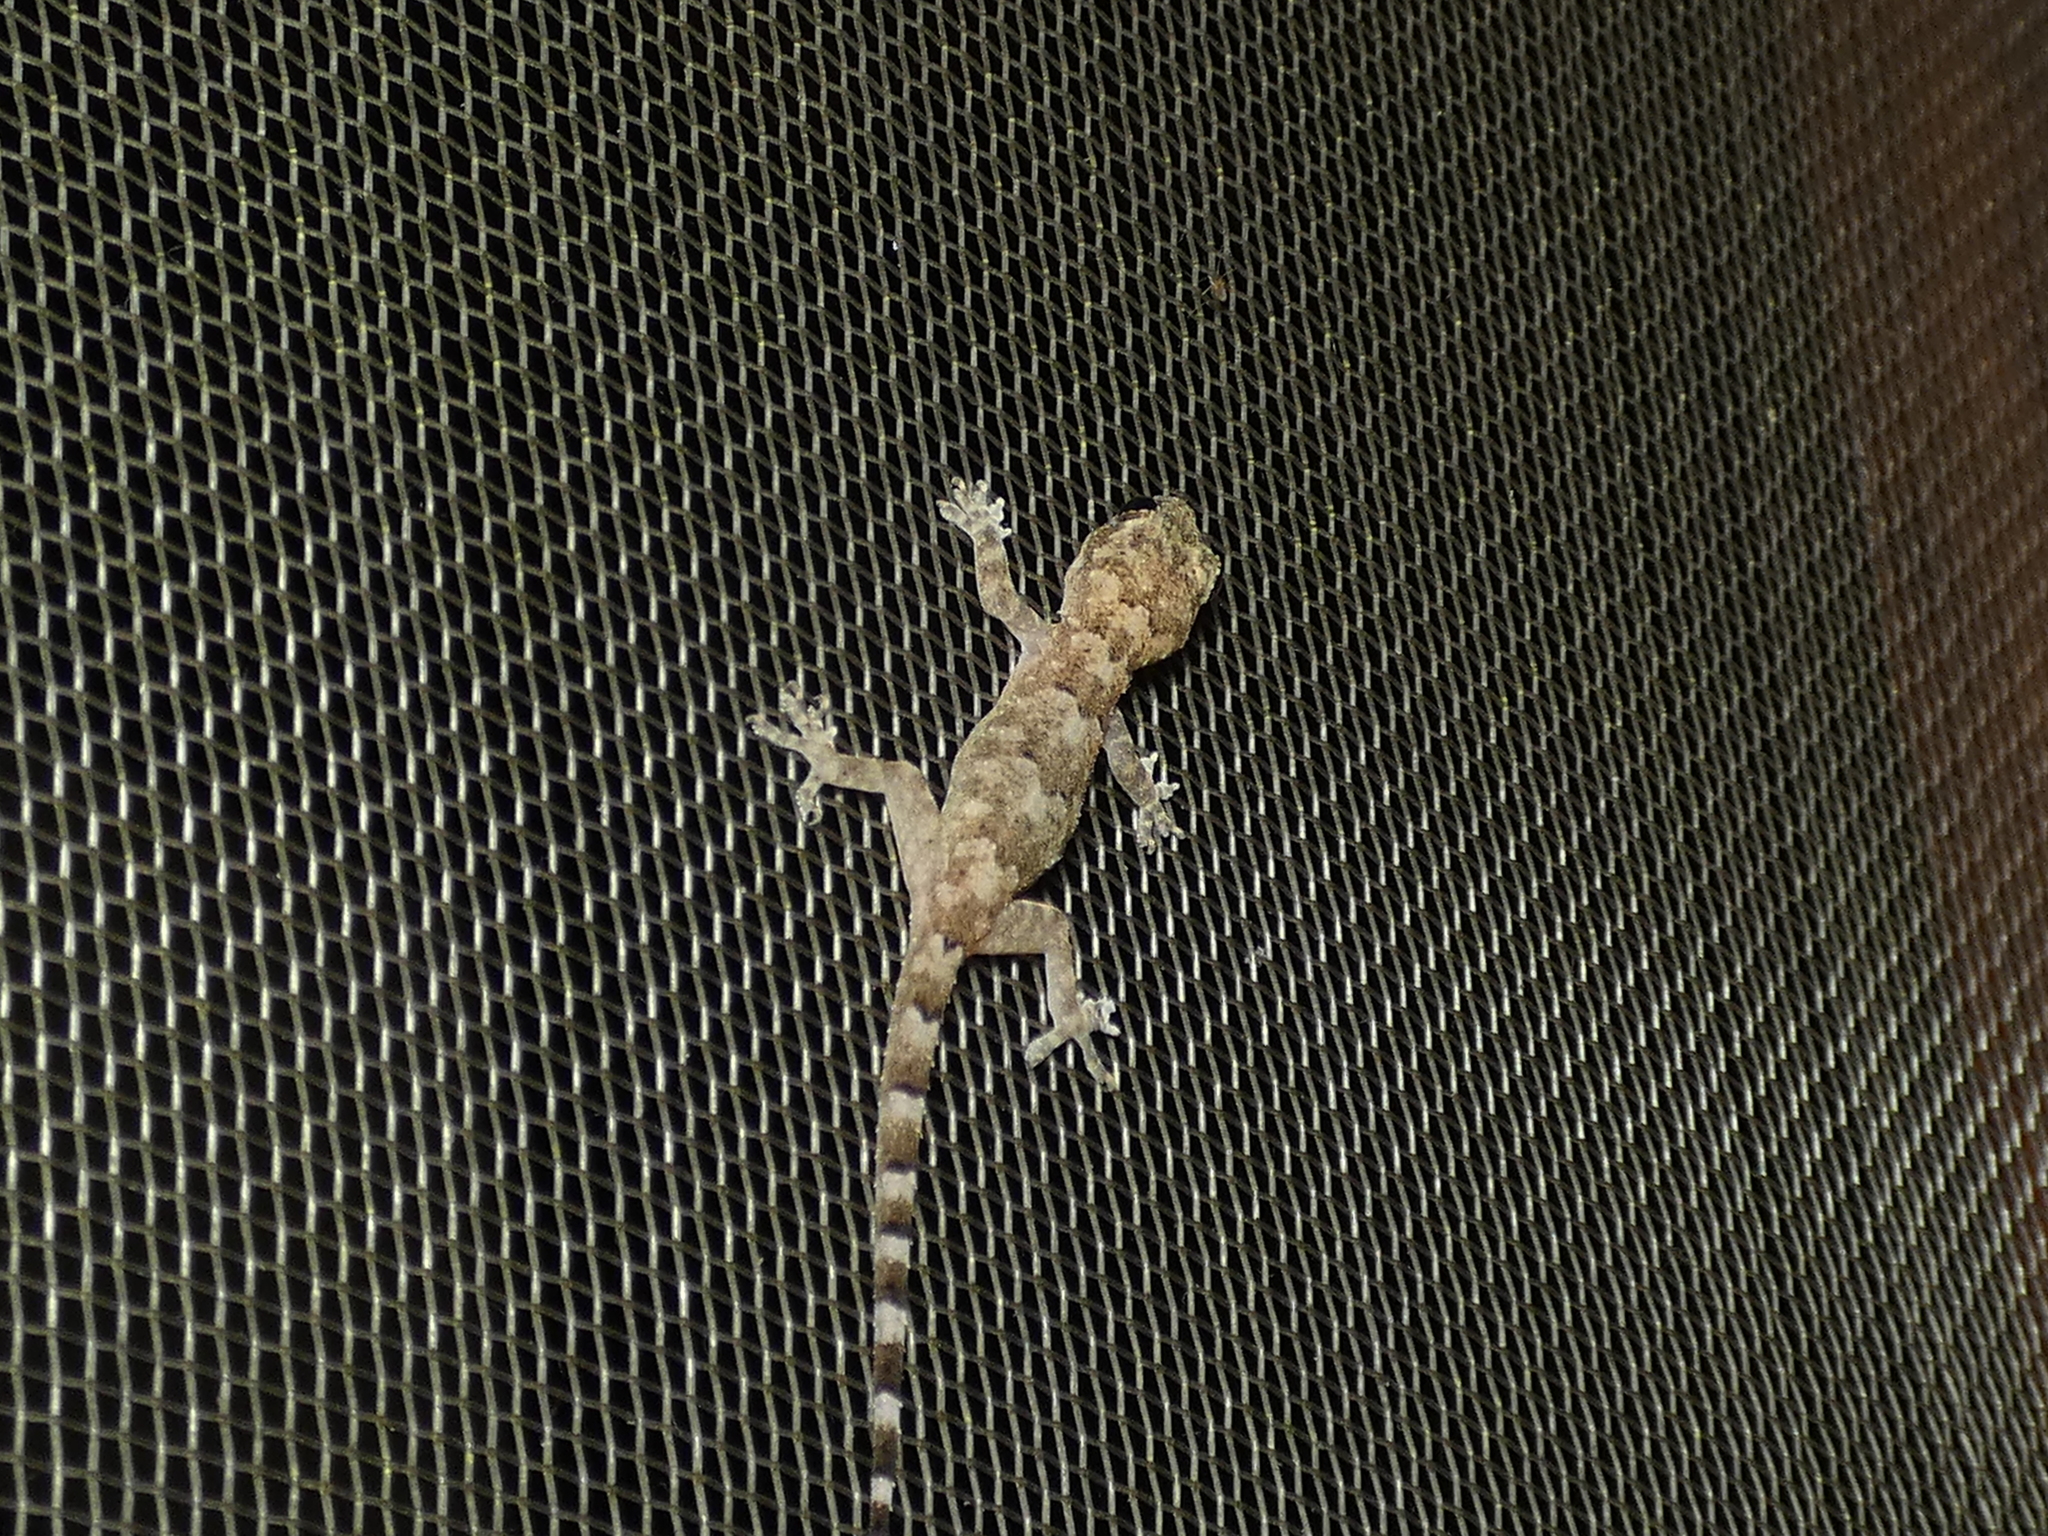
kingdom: Animalia
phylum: Chordata
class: Squamata
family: Gekkonidae
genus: Hemidactylus
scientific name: Hemidactylus mabouia
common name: House gecko
